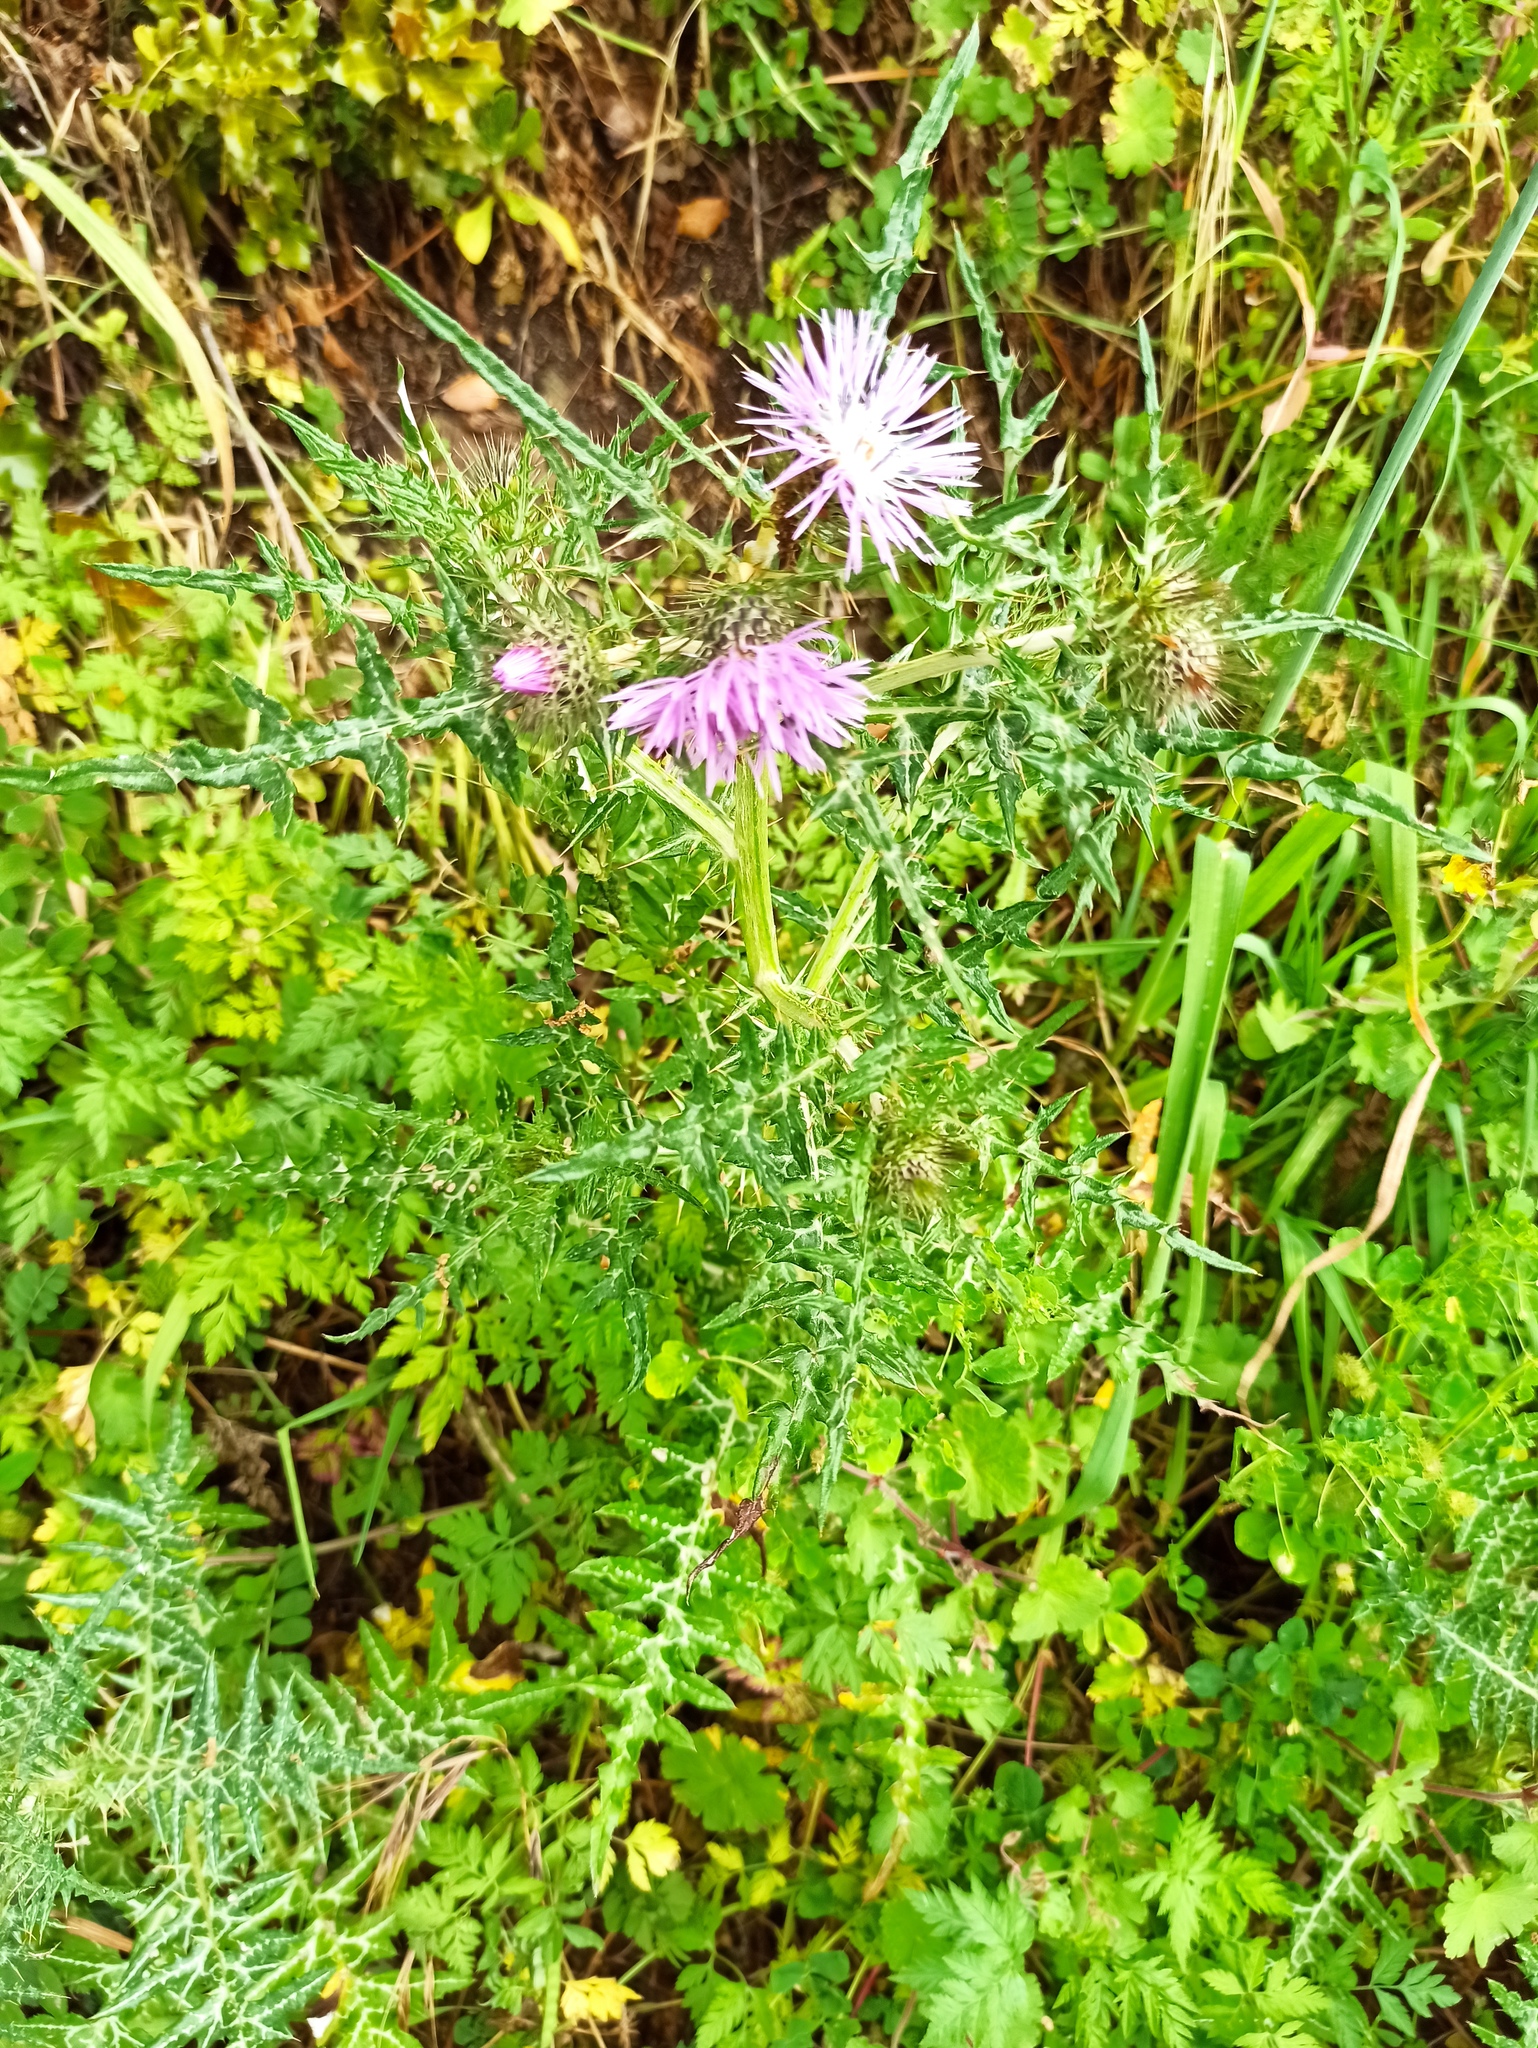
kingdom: Plantae
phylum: Tracheophyta
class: Magnoliopsida
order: Asterales
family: Asteraceae
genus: Galactites
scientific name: Galactites tomentosa
